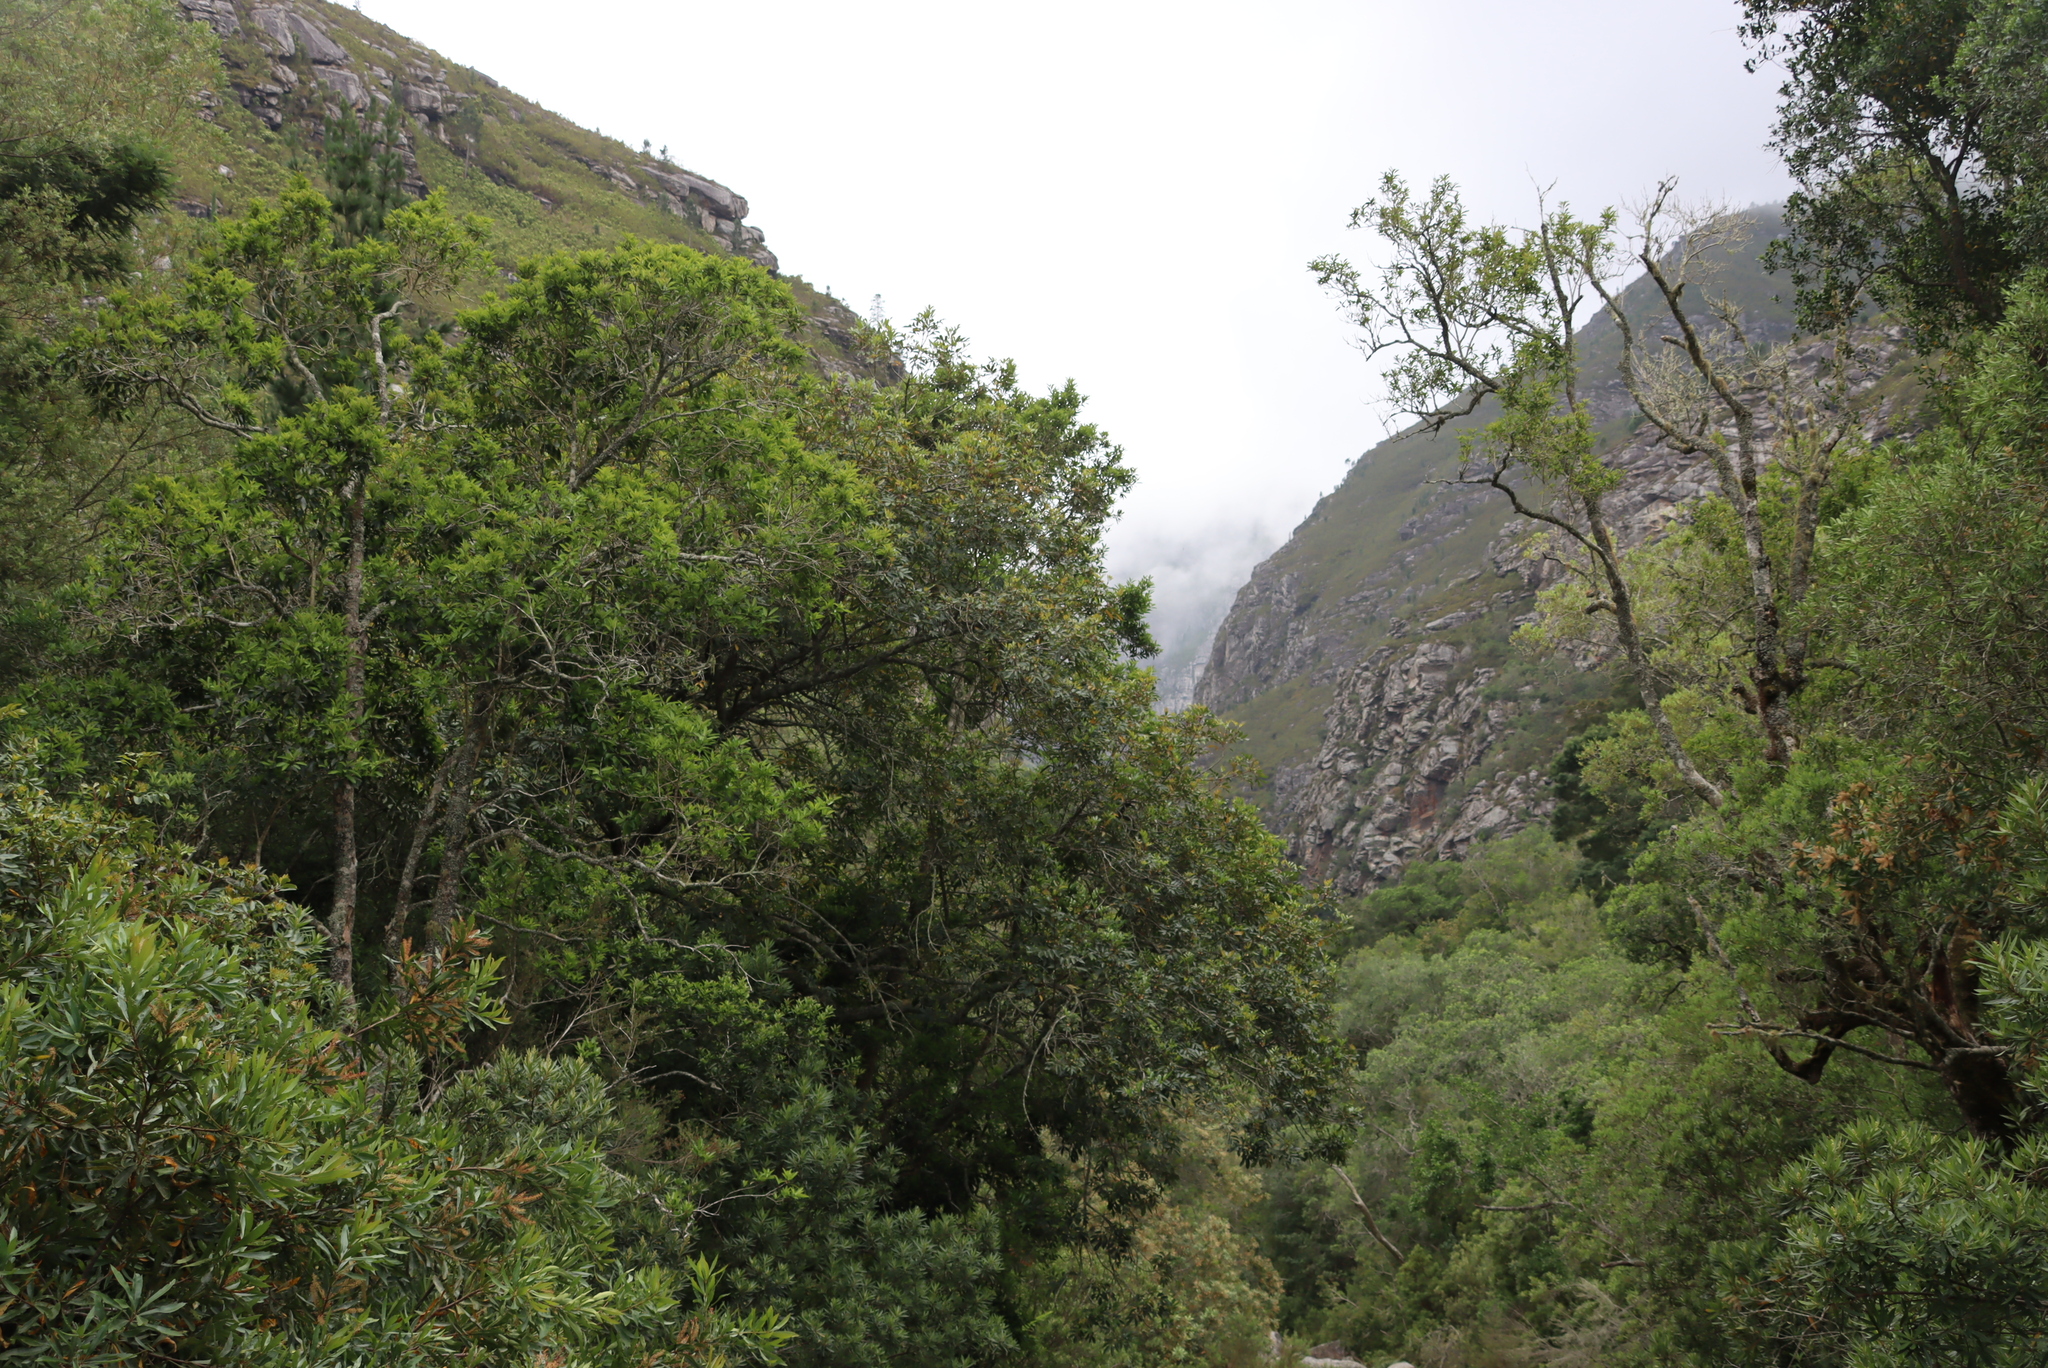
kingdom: Plantae
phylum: Tracheophyta
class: Magnoliopsida
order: Proteales
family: Proteaceae
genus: Brabejum
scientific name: Brabejum stellatifolium
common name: Wild almond
